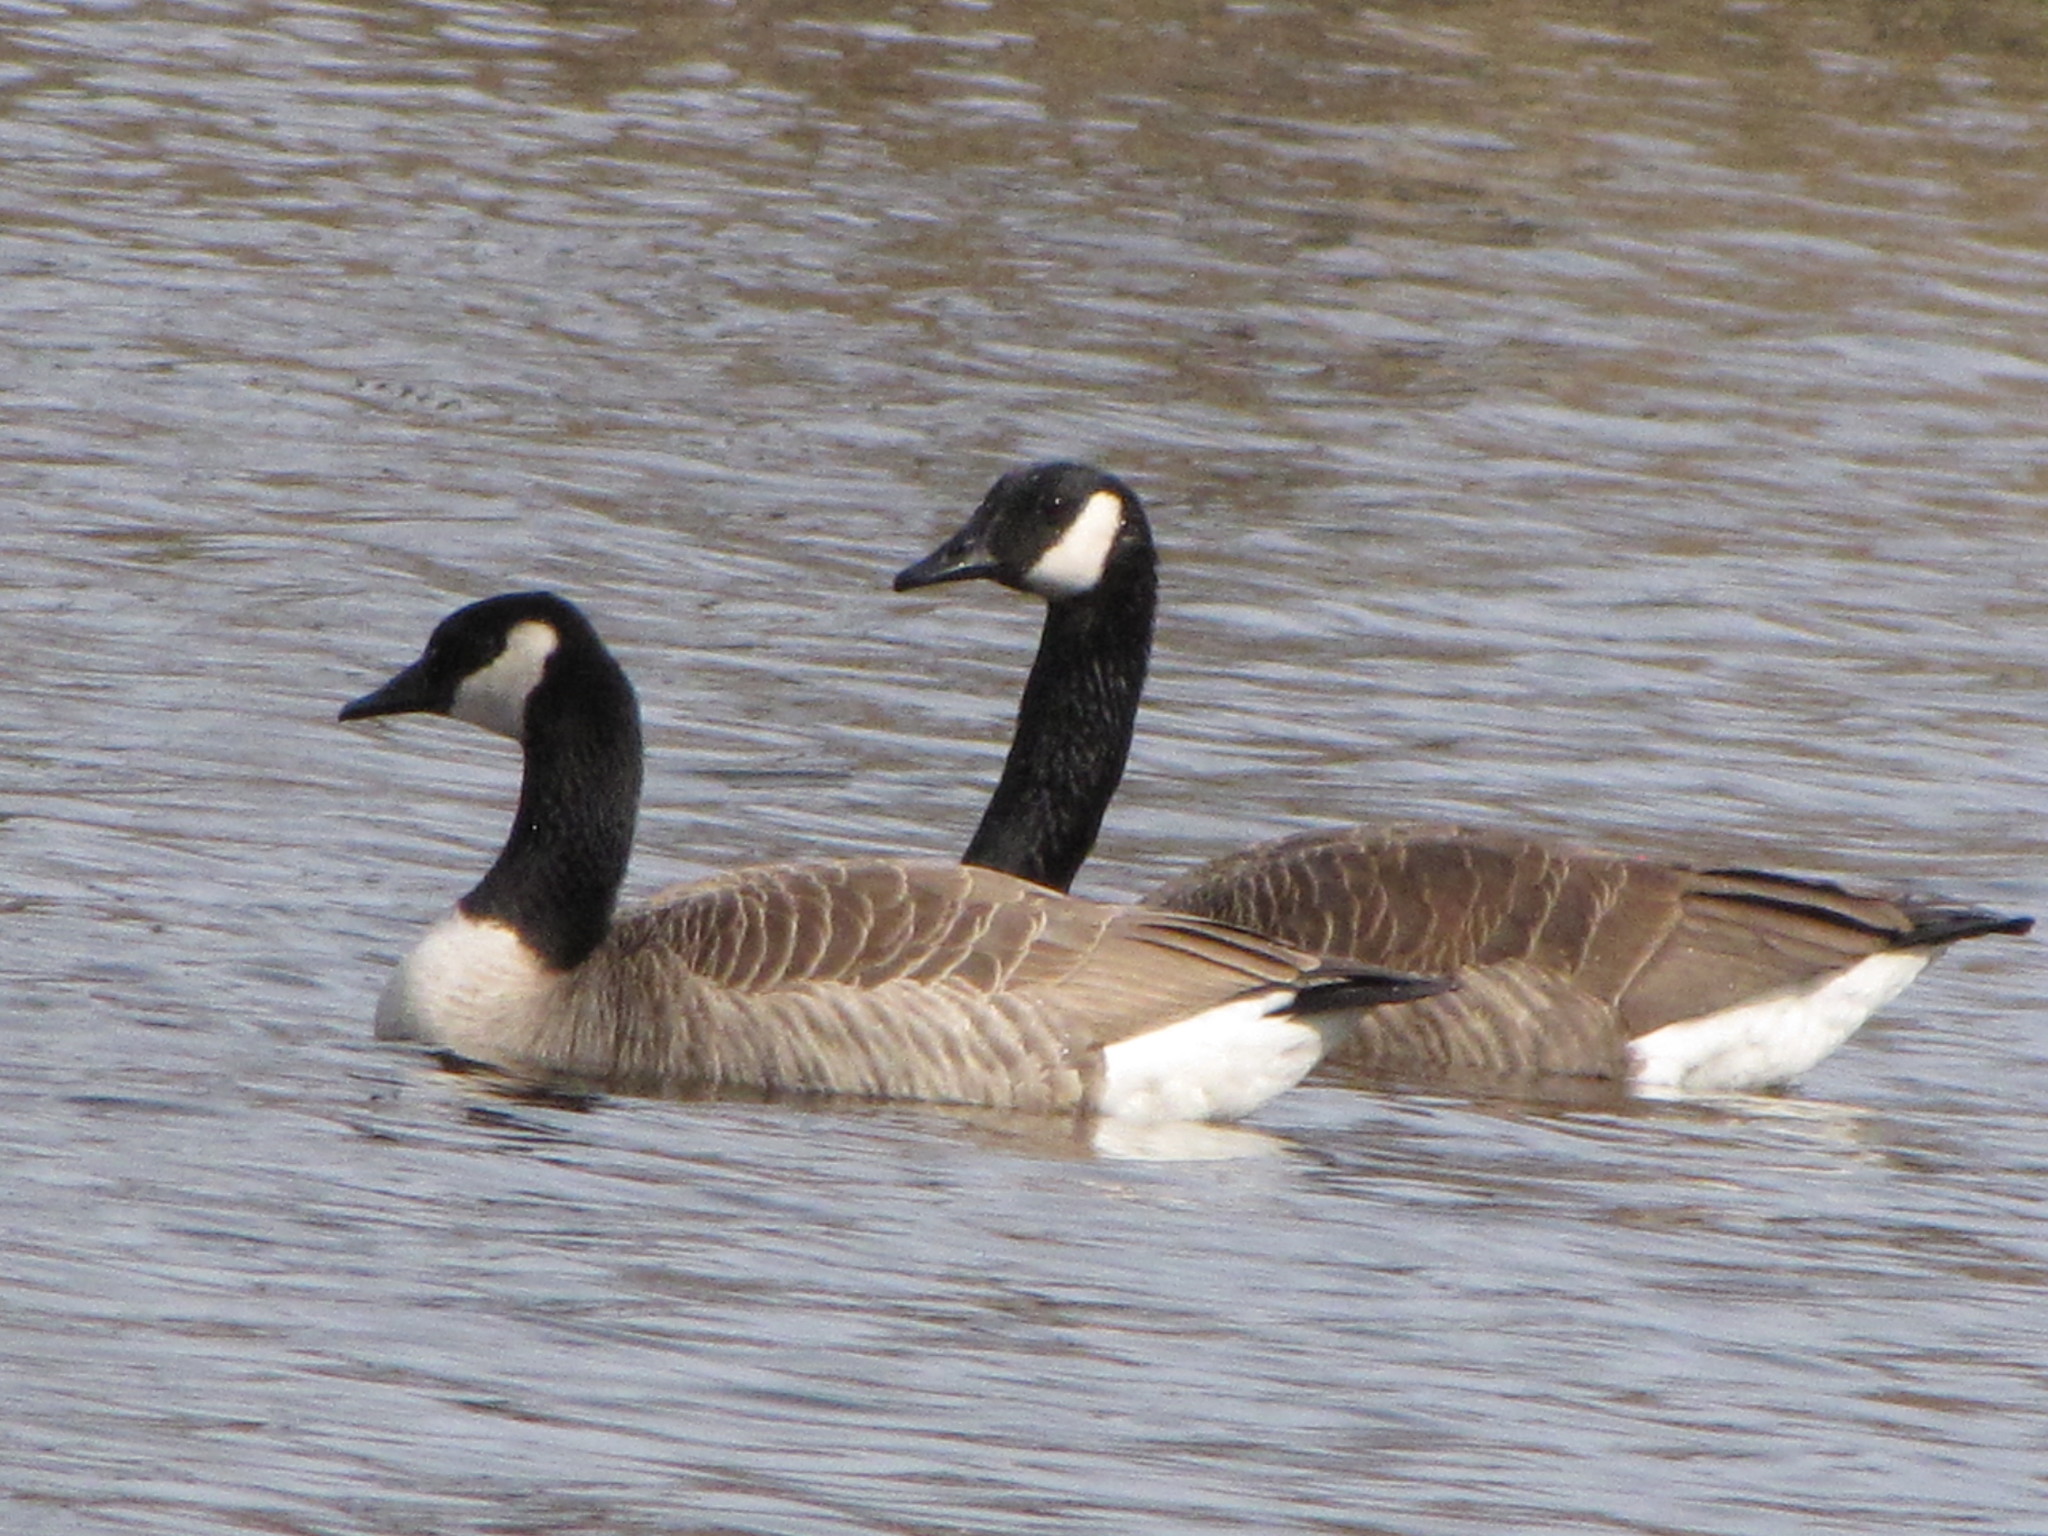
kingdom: Animalia
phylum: Chordata
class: Aves
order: Anseriformes
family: Anatidae
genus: Branta
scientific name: Branta canadensis
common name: Canada goose
